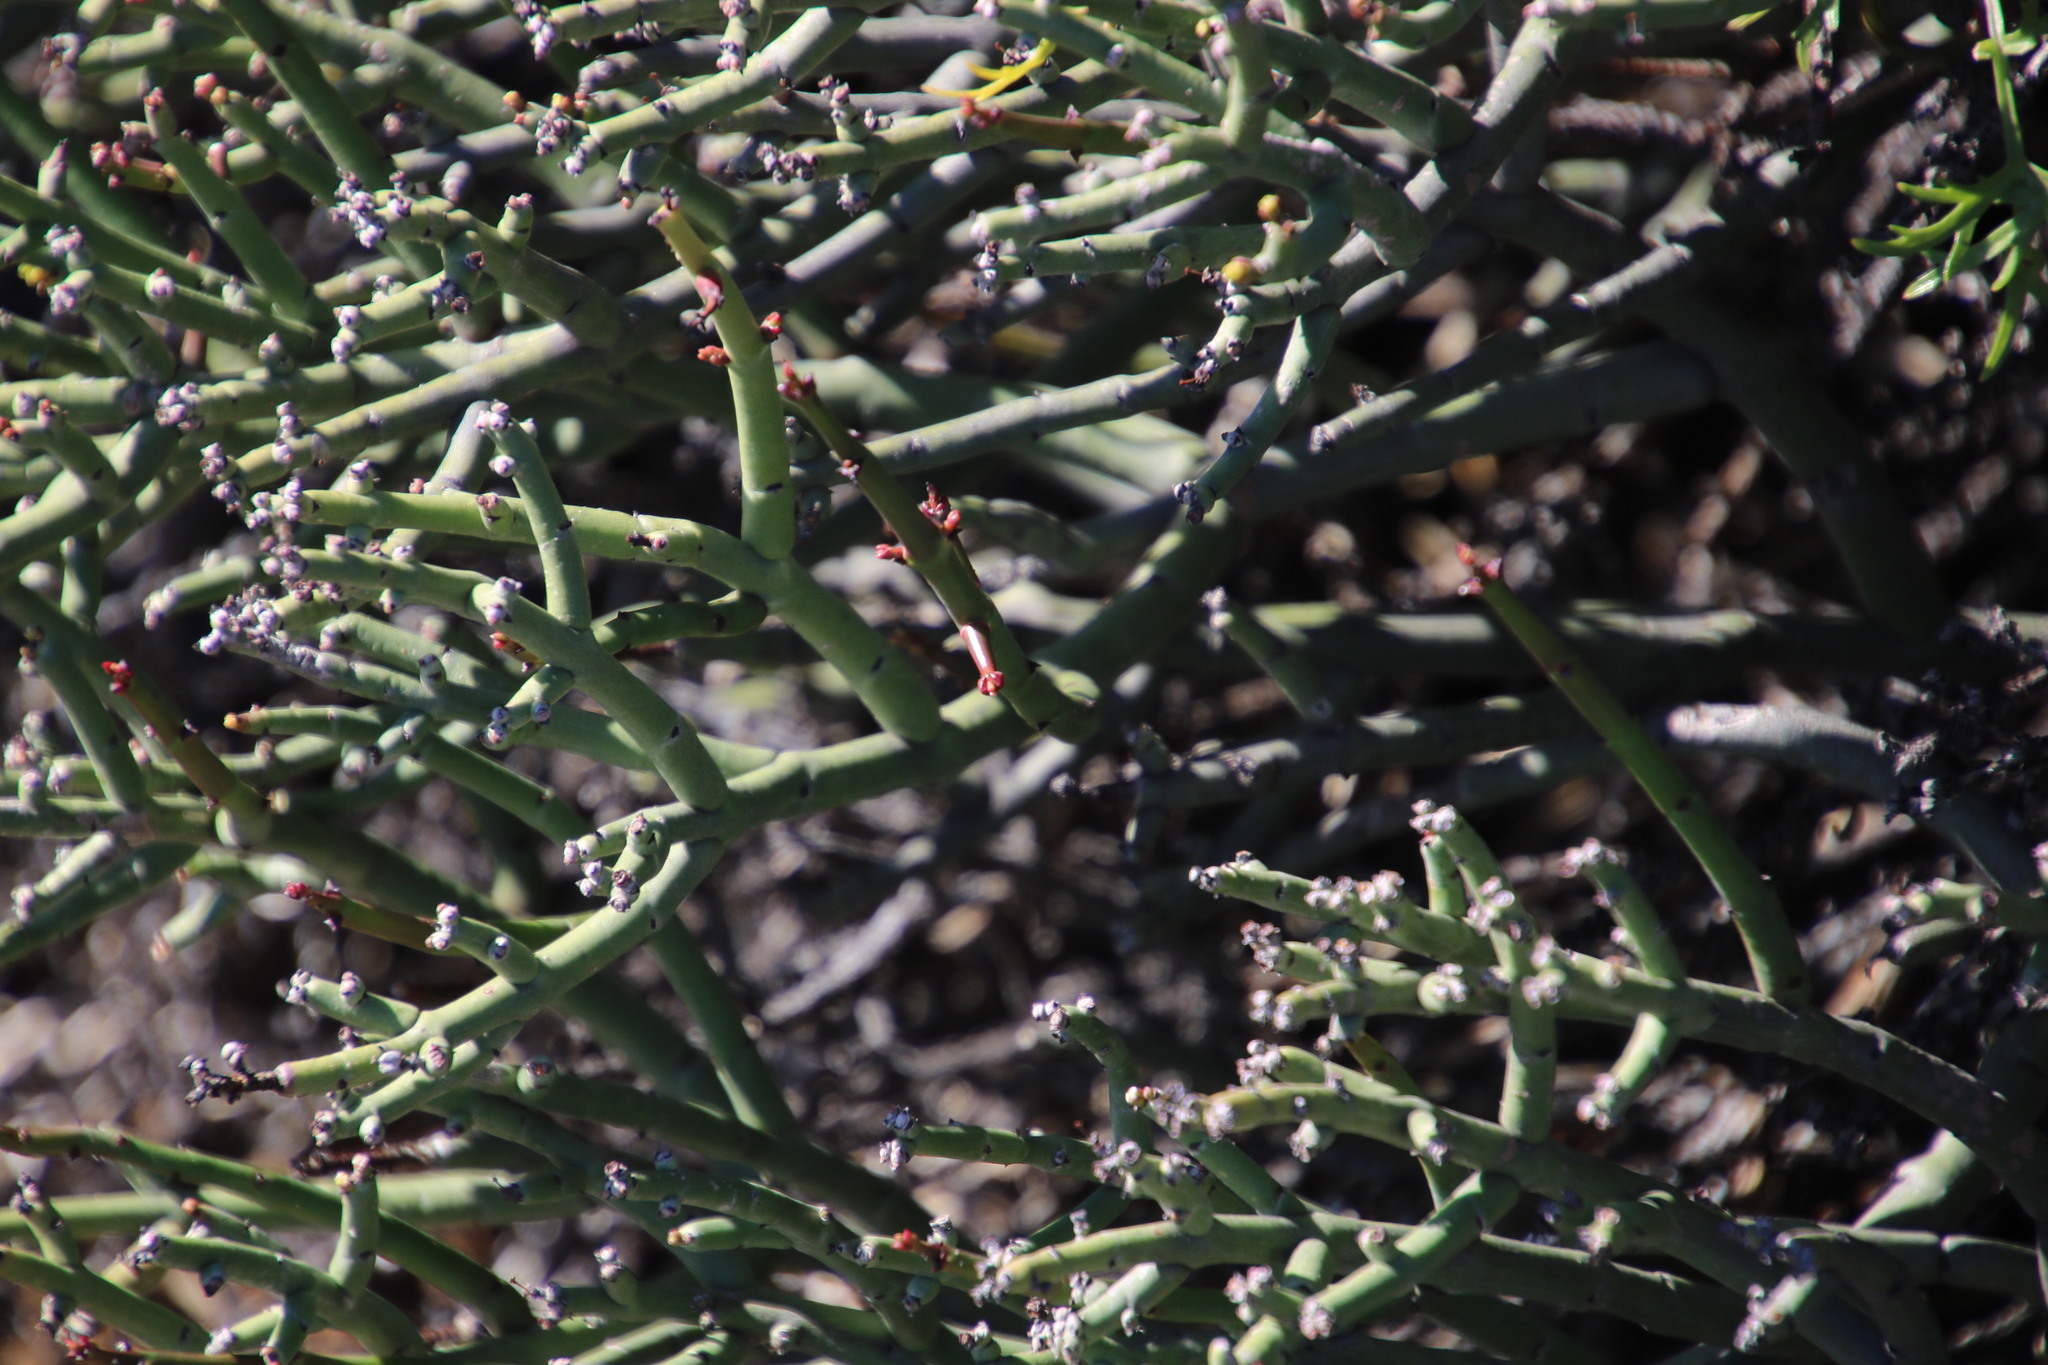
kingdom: Plantae
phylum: Tracheophyta
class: Magnoliopsida
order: Malpighiales
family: Euphorbiaceae
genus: Euphorbia
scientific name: Euphorbia rhombifolia
